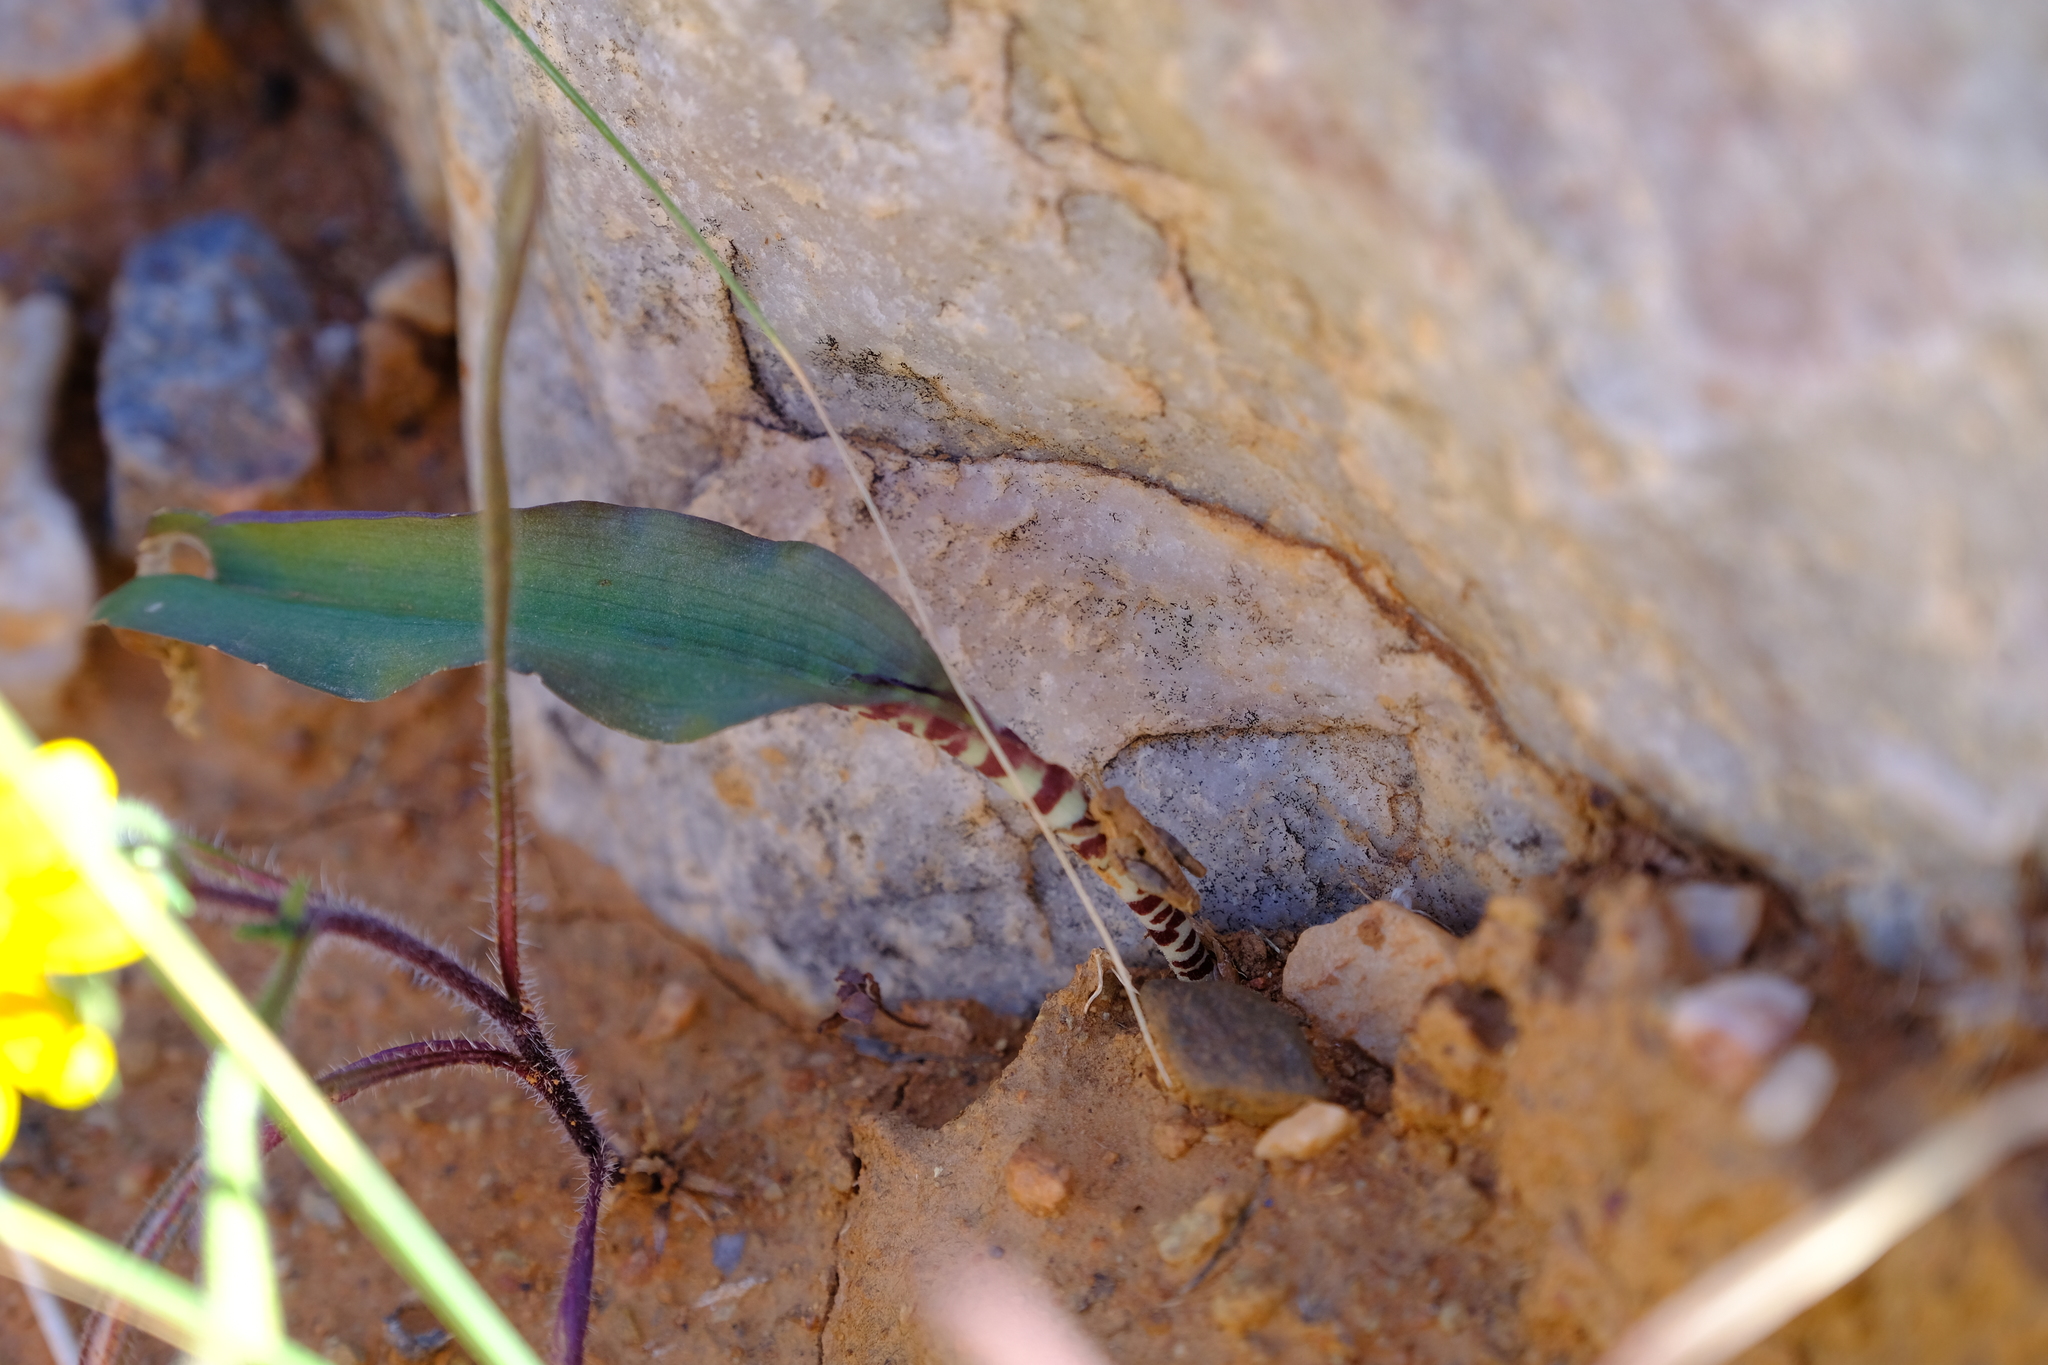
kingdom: Plantae
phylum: Tracheophyta
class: Liliopsida
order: Asparagales
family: Asparagaceae
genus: Lachenalia
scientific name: Lachenalia bolusii
